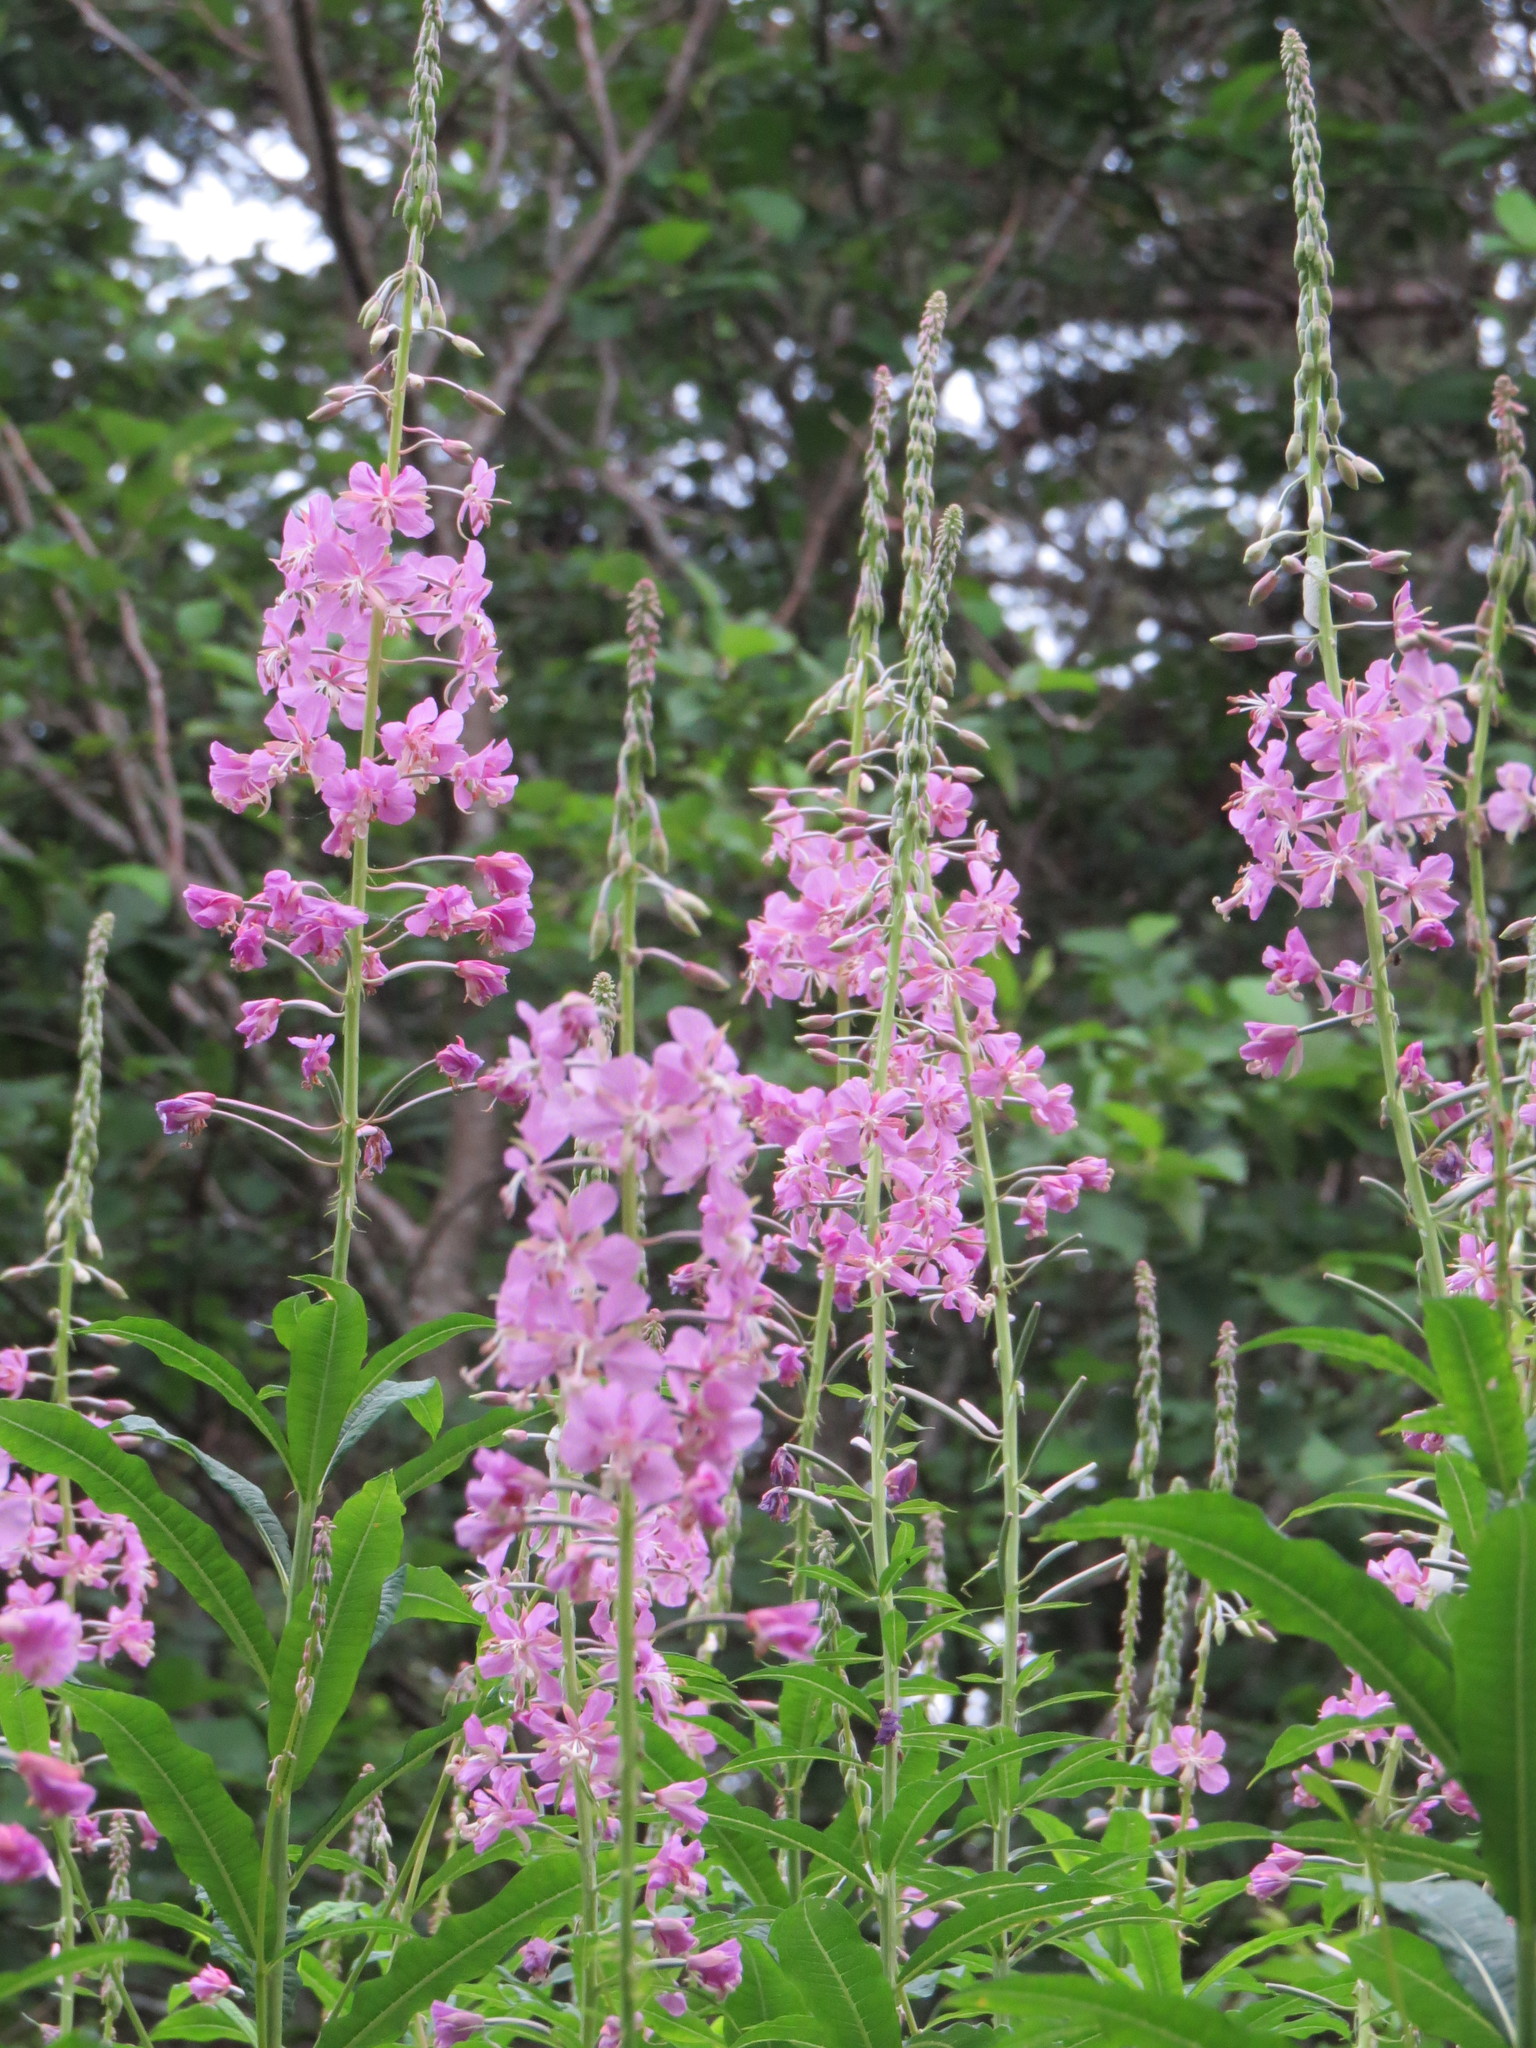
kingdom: Plantae
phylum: Tracheophyta
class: Magnoliopsida
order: Myrtales
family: Onagraceae
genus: Chamaenerion
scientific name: Chamaenerion angustifolium
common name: Fireweed
